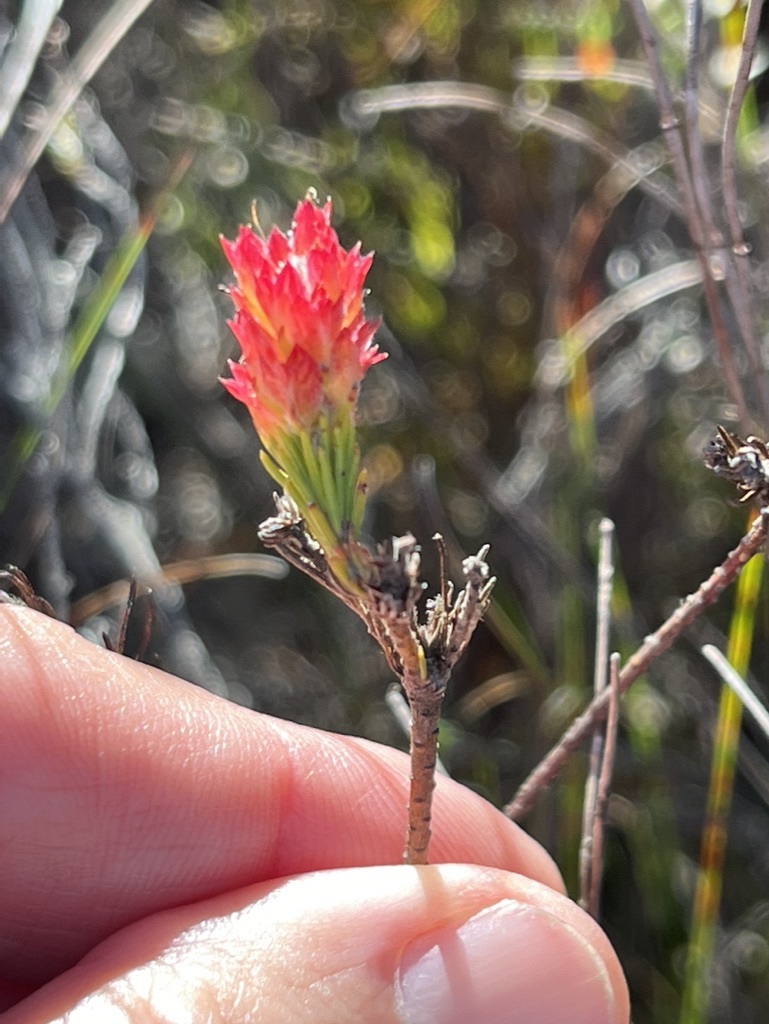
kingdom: Plantae
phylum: Tracheophyta
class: Magnoliopsida
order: Proteales
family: Proteaceae
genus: Spatalla
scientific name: Spatalla squamata
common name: Silky spoon
